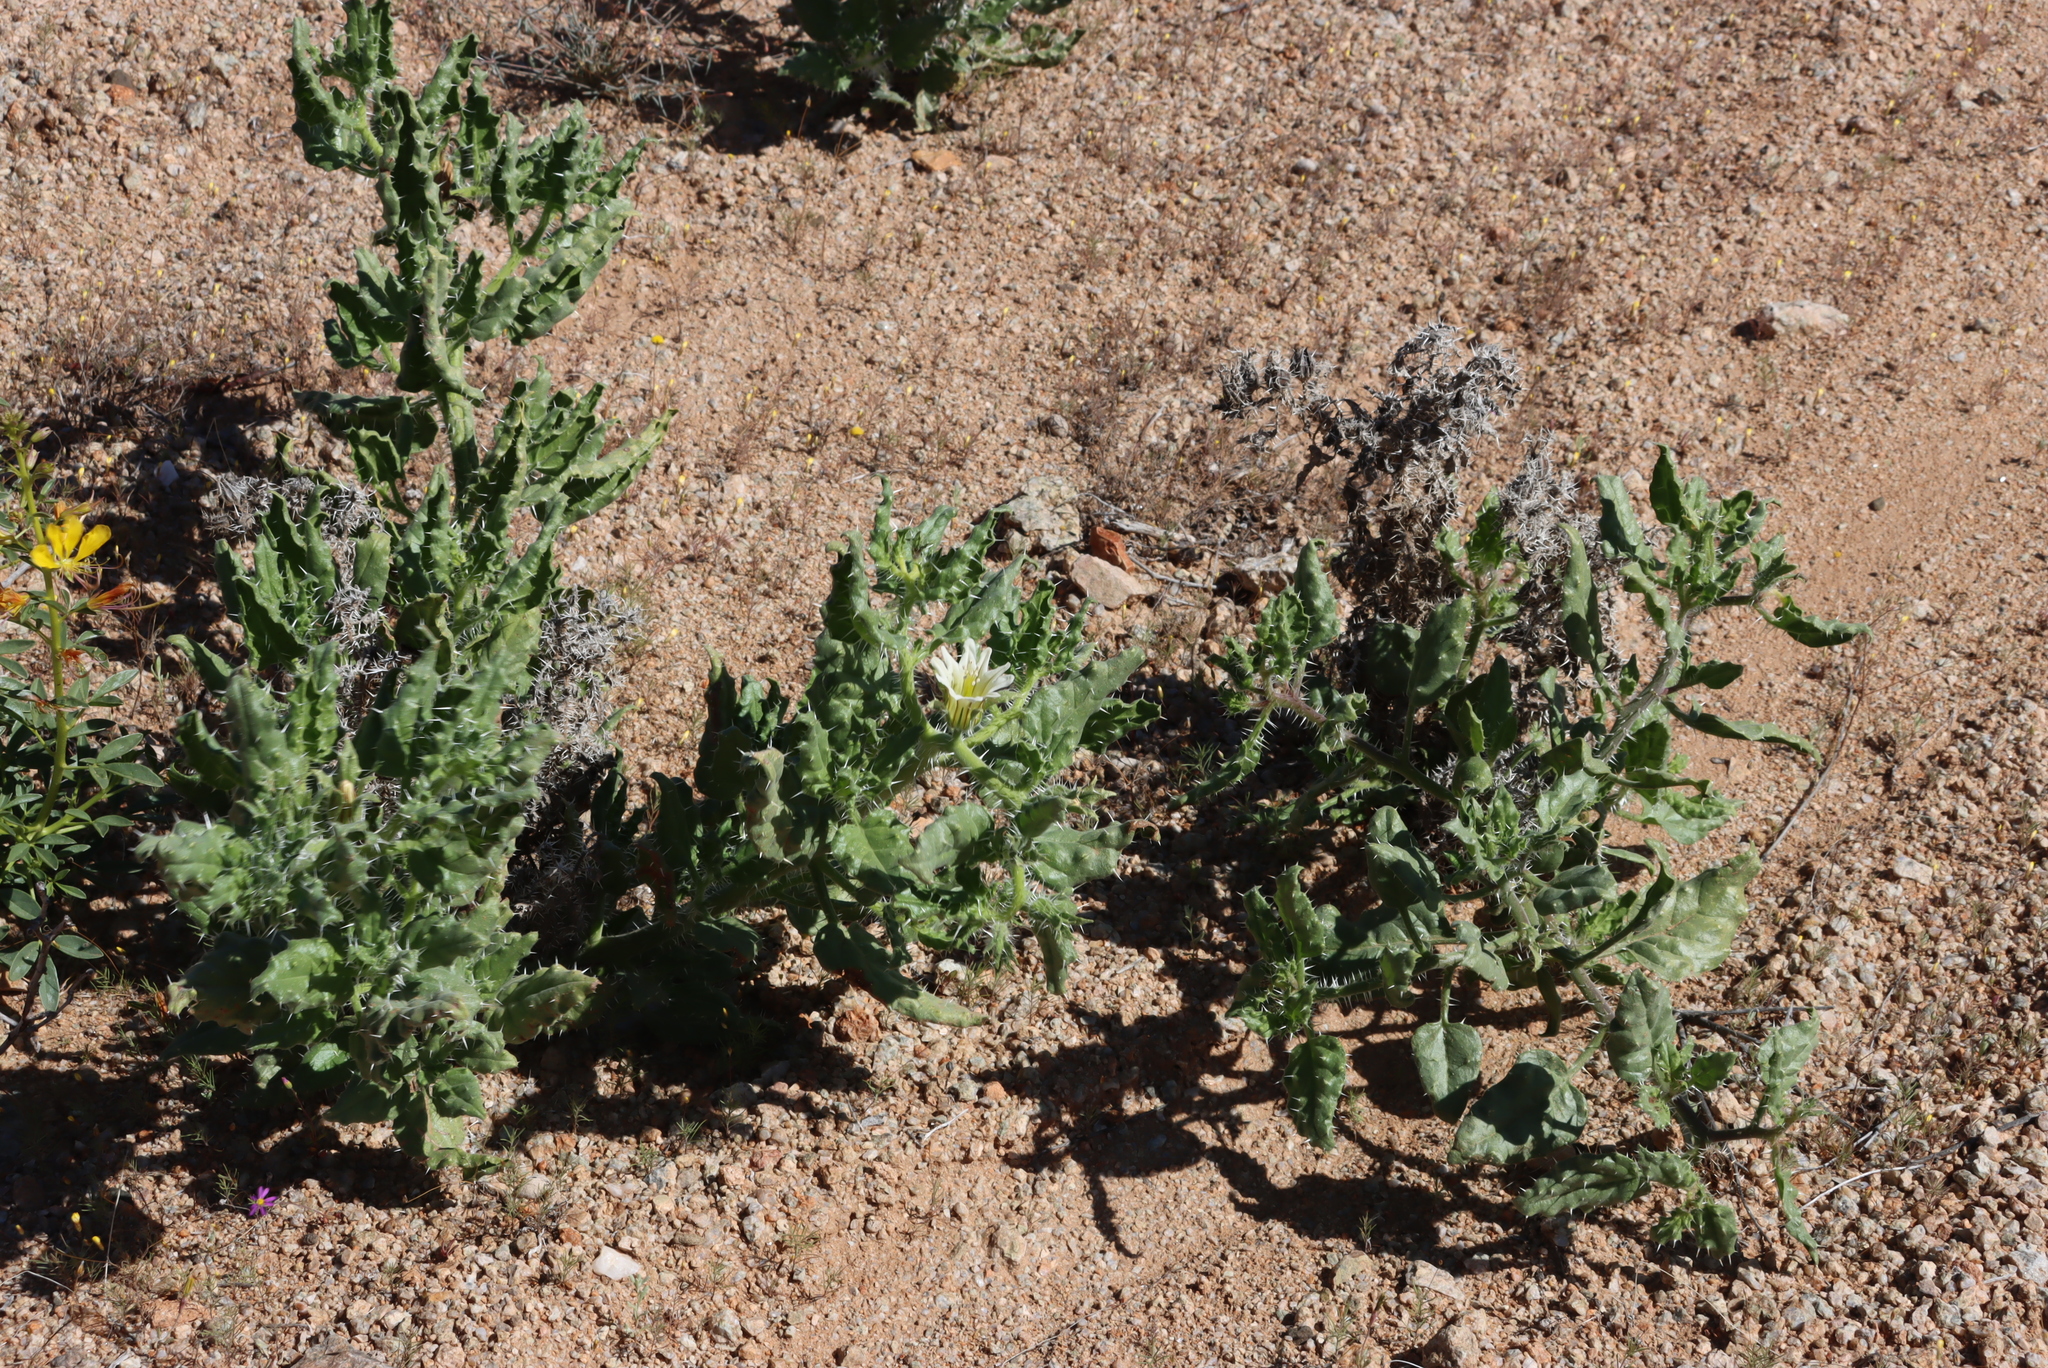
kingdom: Plantae
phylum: Tracheophyta
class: Magnoliopsida
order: Boraginales
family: Boraginaceae
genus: Codon
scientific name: Codon royenii
